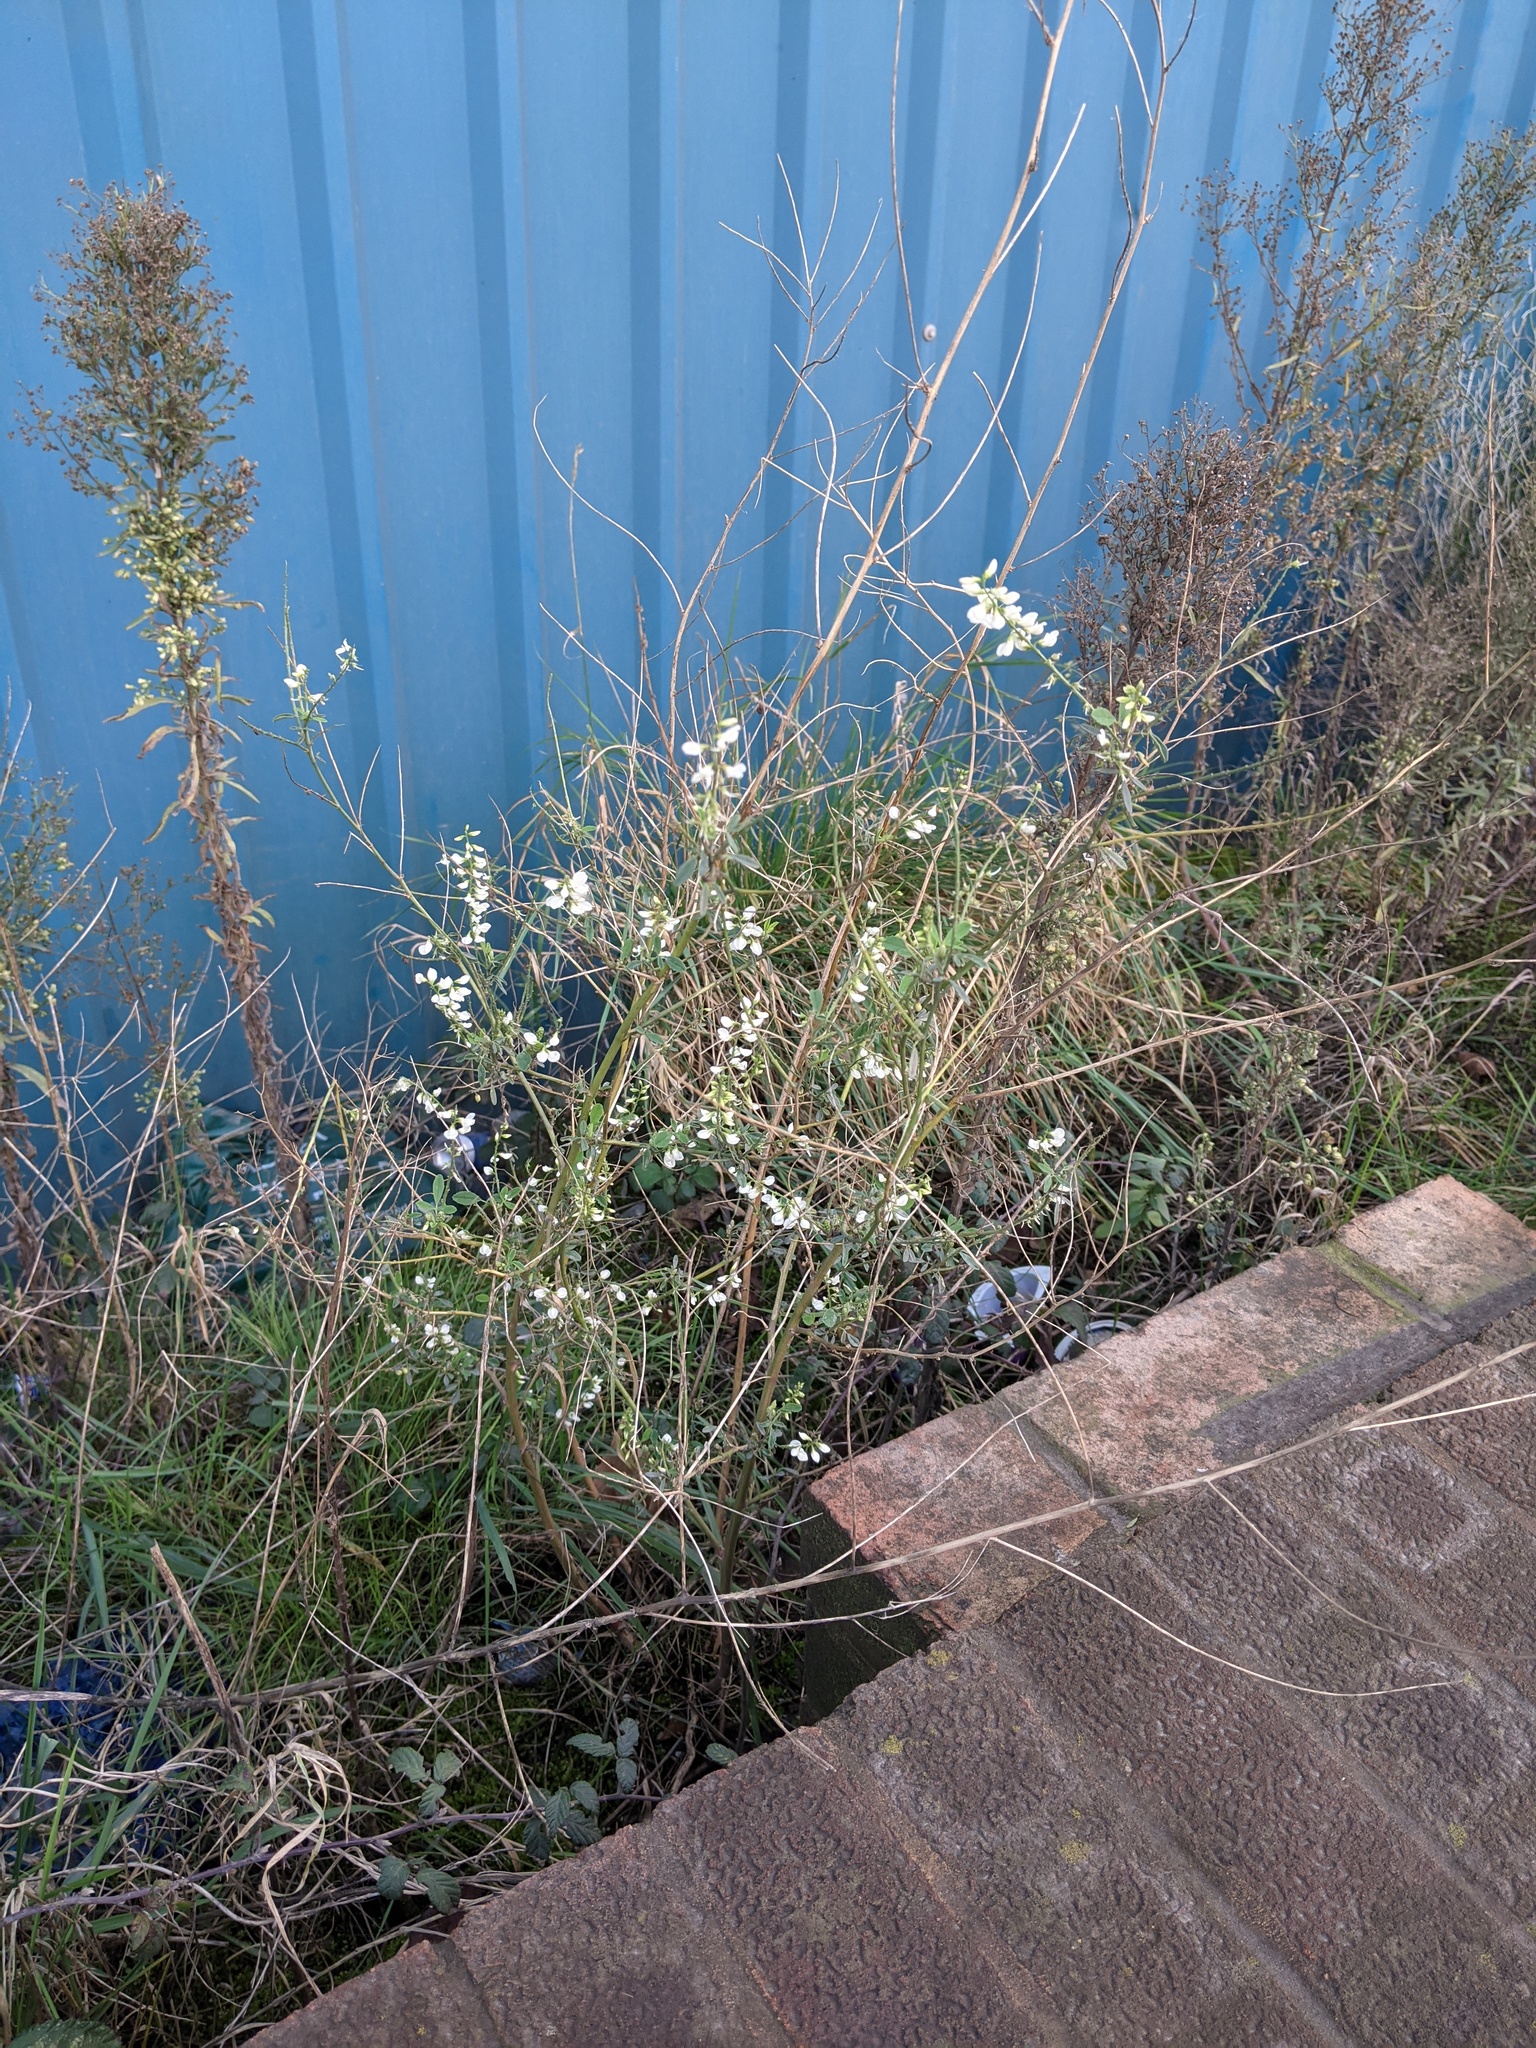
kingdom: Plantae
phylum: Tracheophyta
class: Magnoliopsida
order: Fabales
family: Fabaceae
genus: Melilotus
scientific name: Melilotus albus
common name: White melilot
